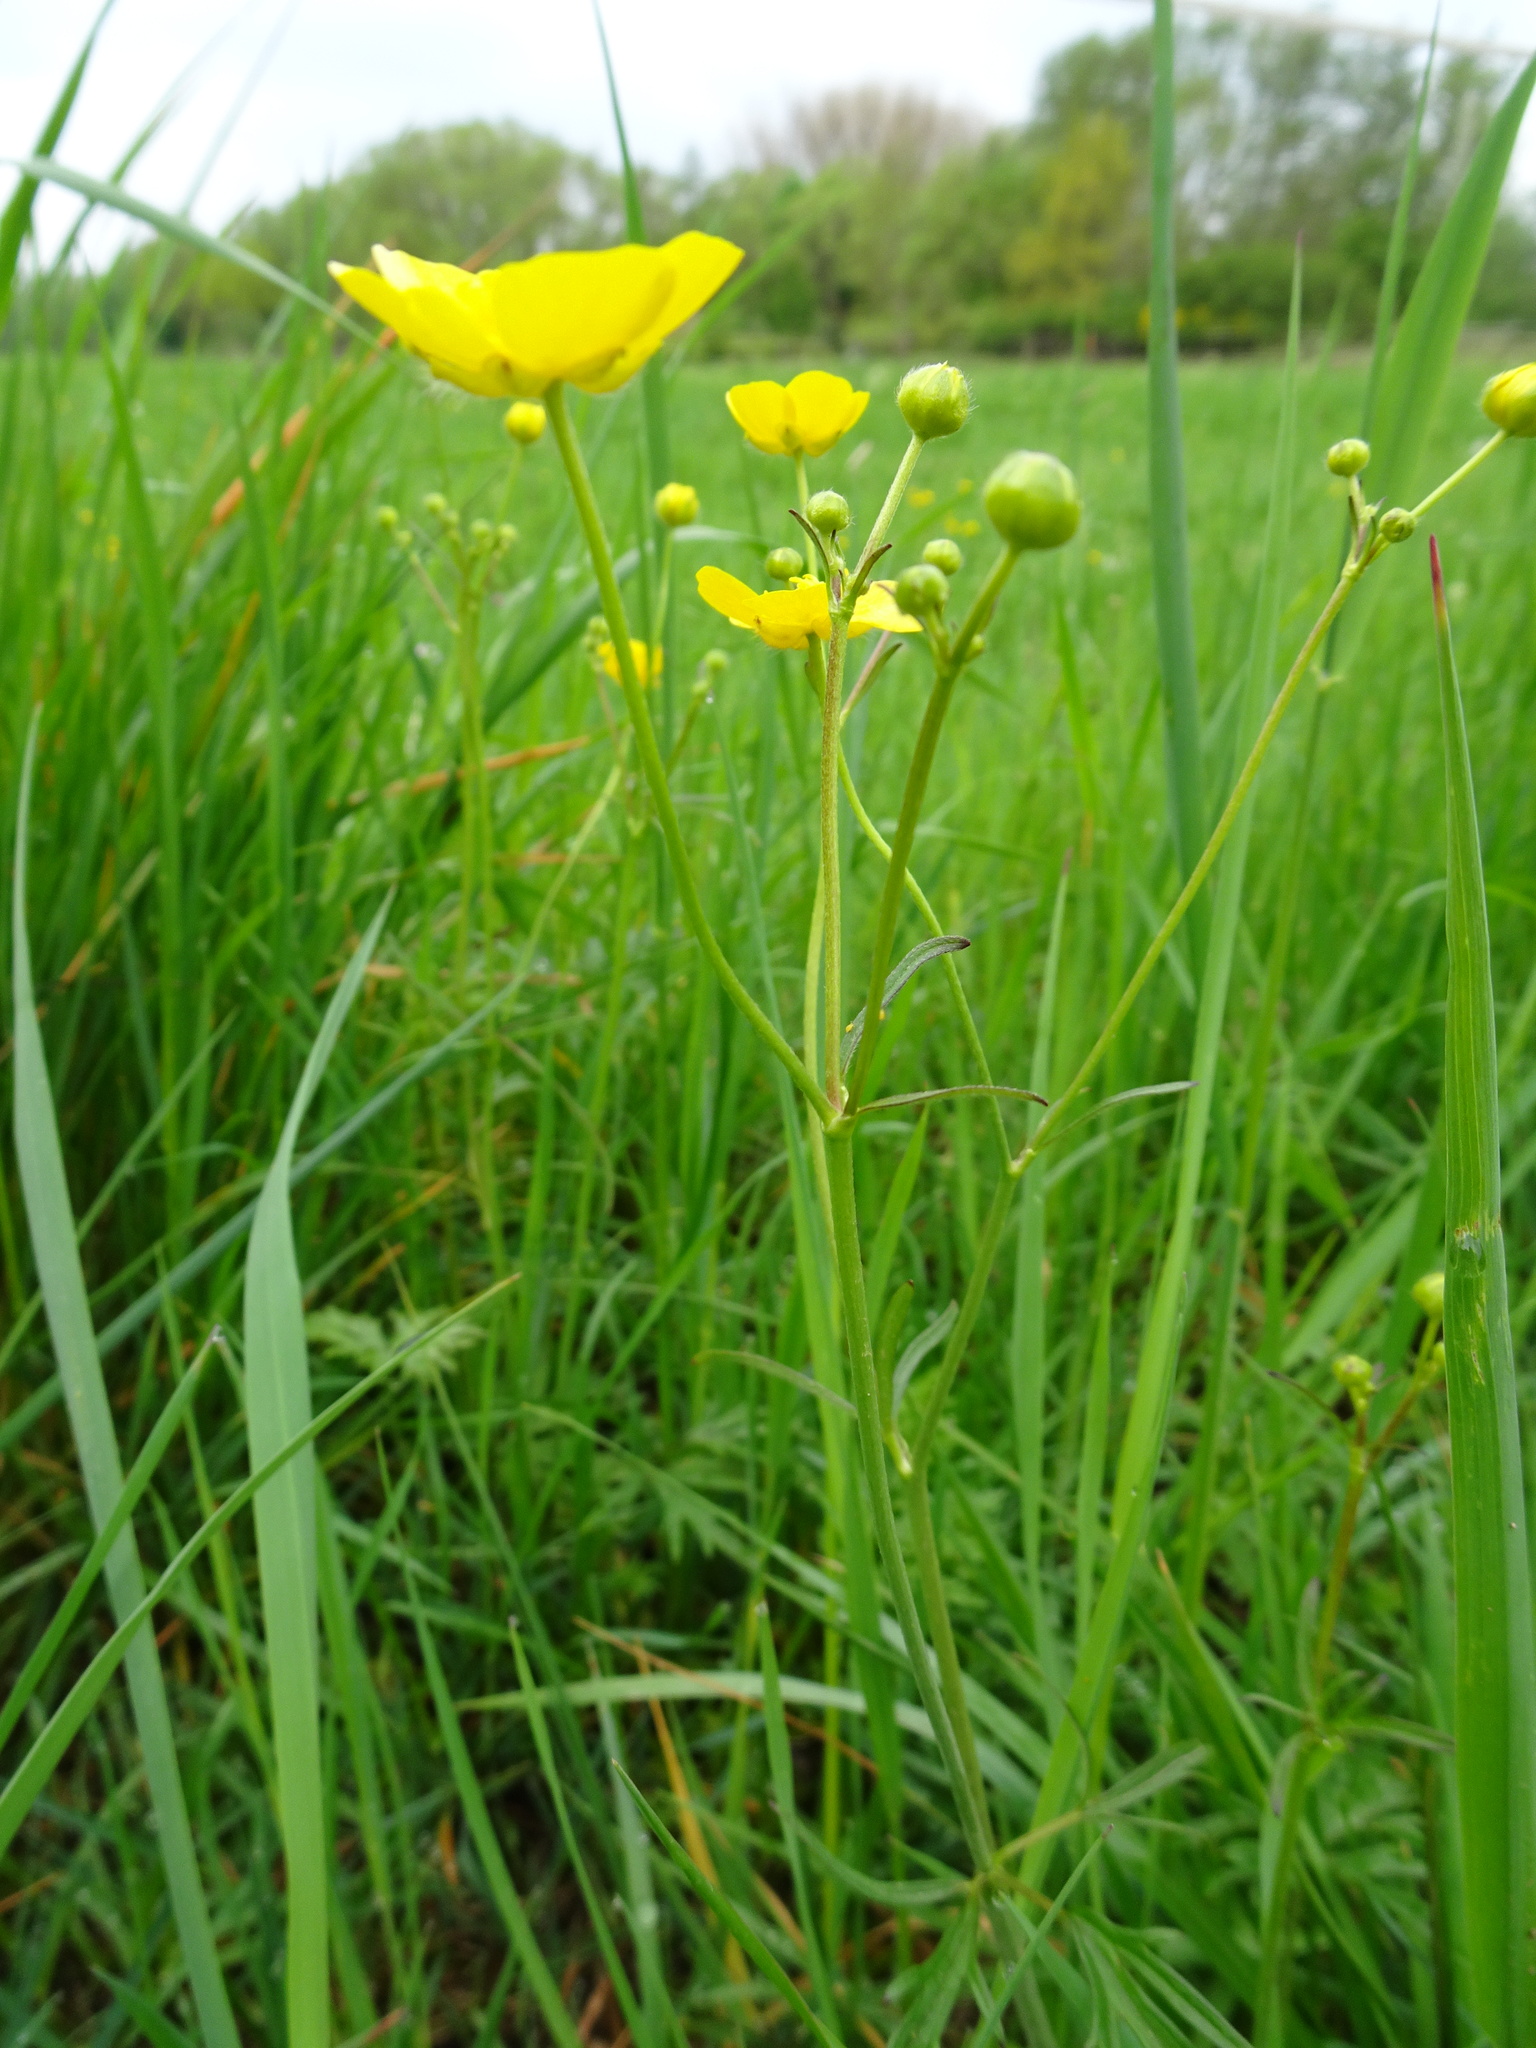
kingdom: Plantae
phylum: Tracheophyta
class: Magnoliopsida
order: Ranunculales
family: Ranunculaceae
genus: Ranunculus
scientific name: Ranunculus acris
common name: Meadow buttercup
